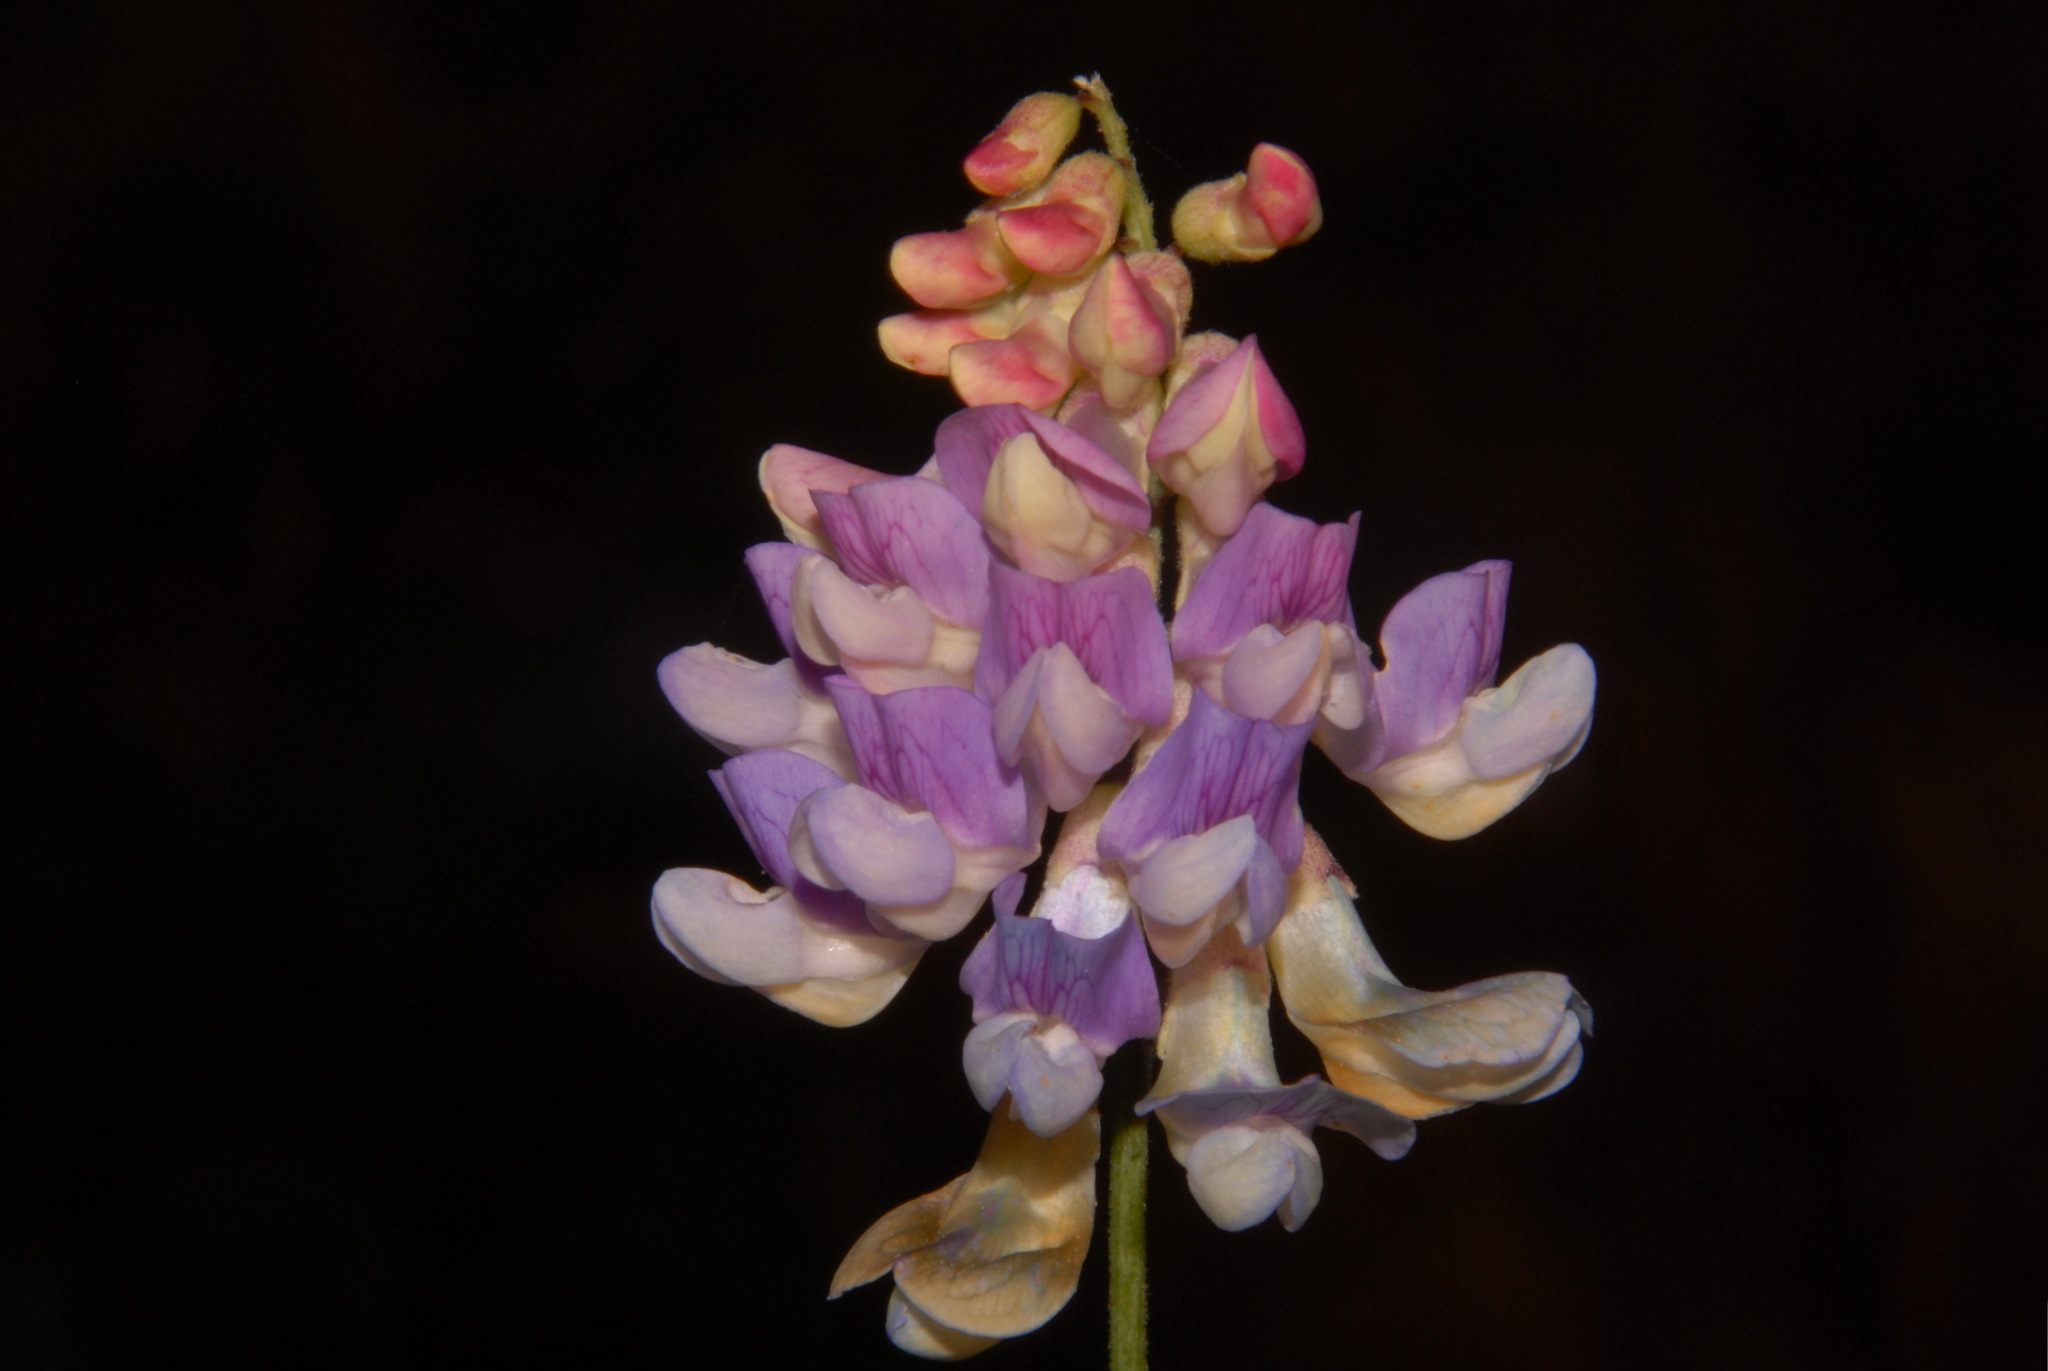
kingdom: Plantae
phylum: Tracheophyta
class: Magnoliopsida
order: Fabales
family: Fabaceae
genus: Lathyrus
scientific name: Lathyrus venosus
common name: Forest-pea
